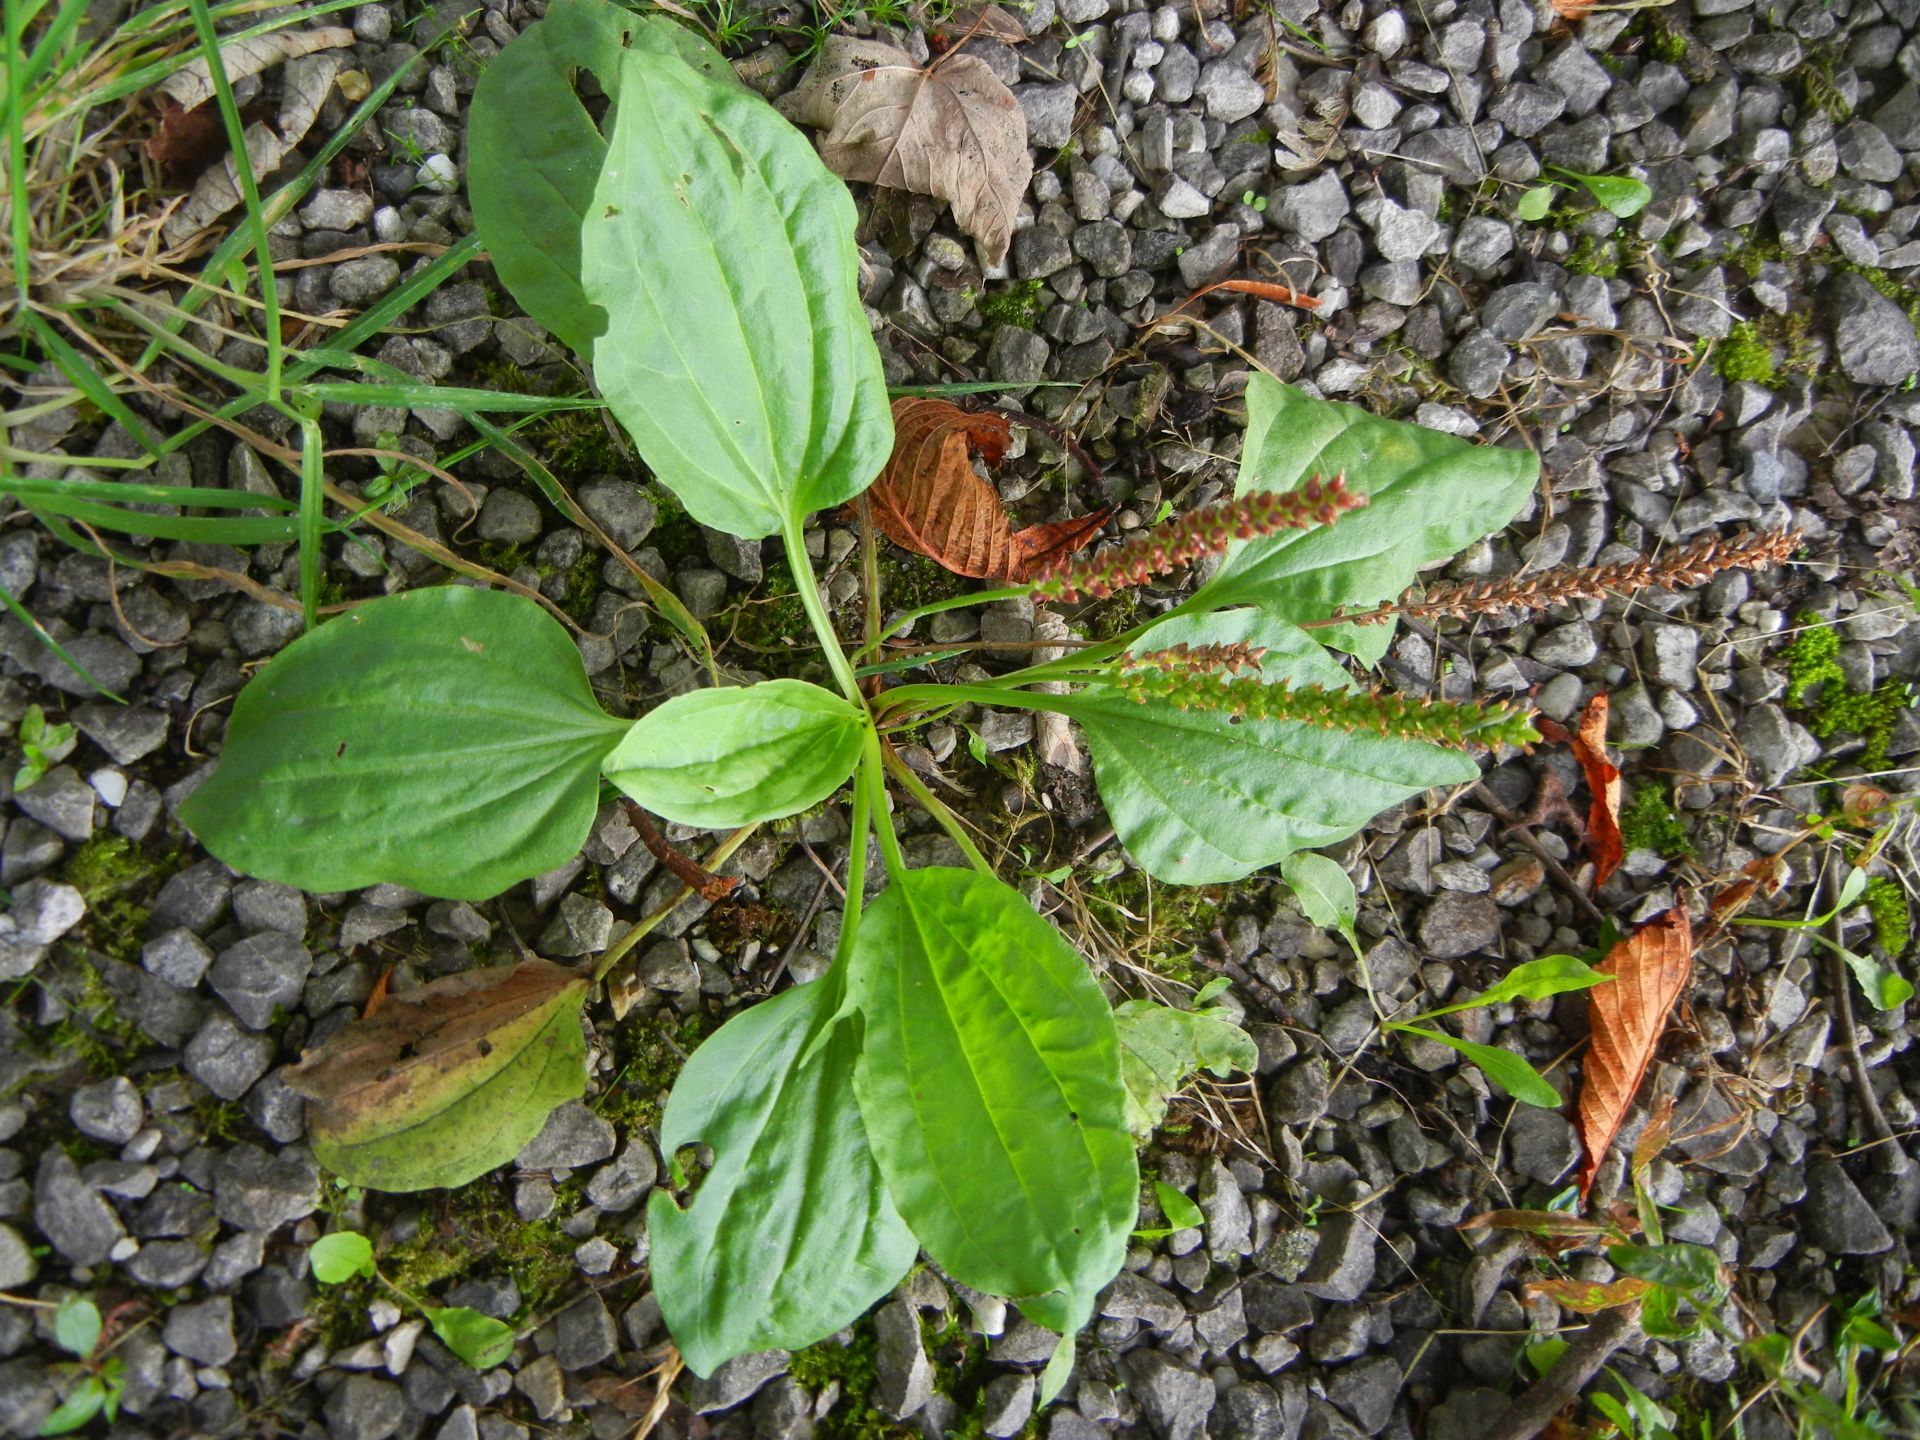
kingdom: Plantae
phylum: Tracheophyta
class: Magnoliopsida
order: Lamiales
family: Plantaginaceae
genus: Plantago
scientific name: Plantago major
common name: Common plantain
